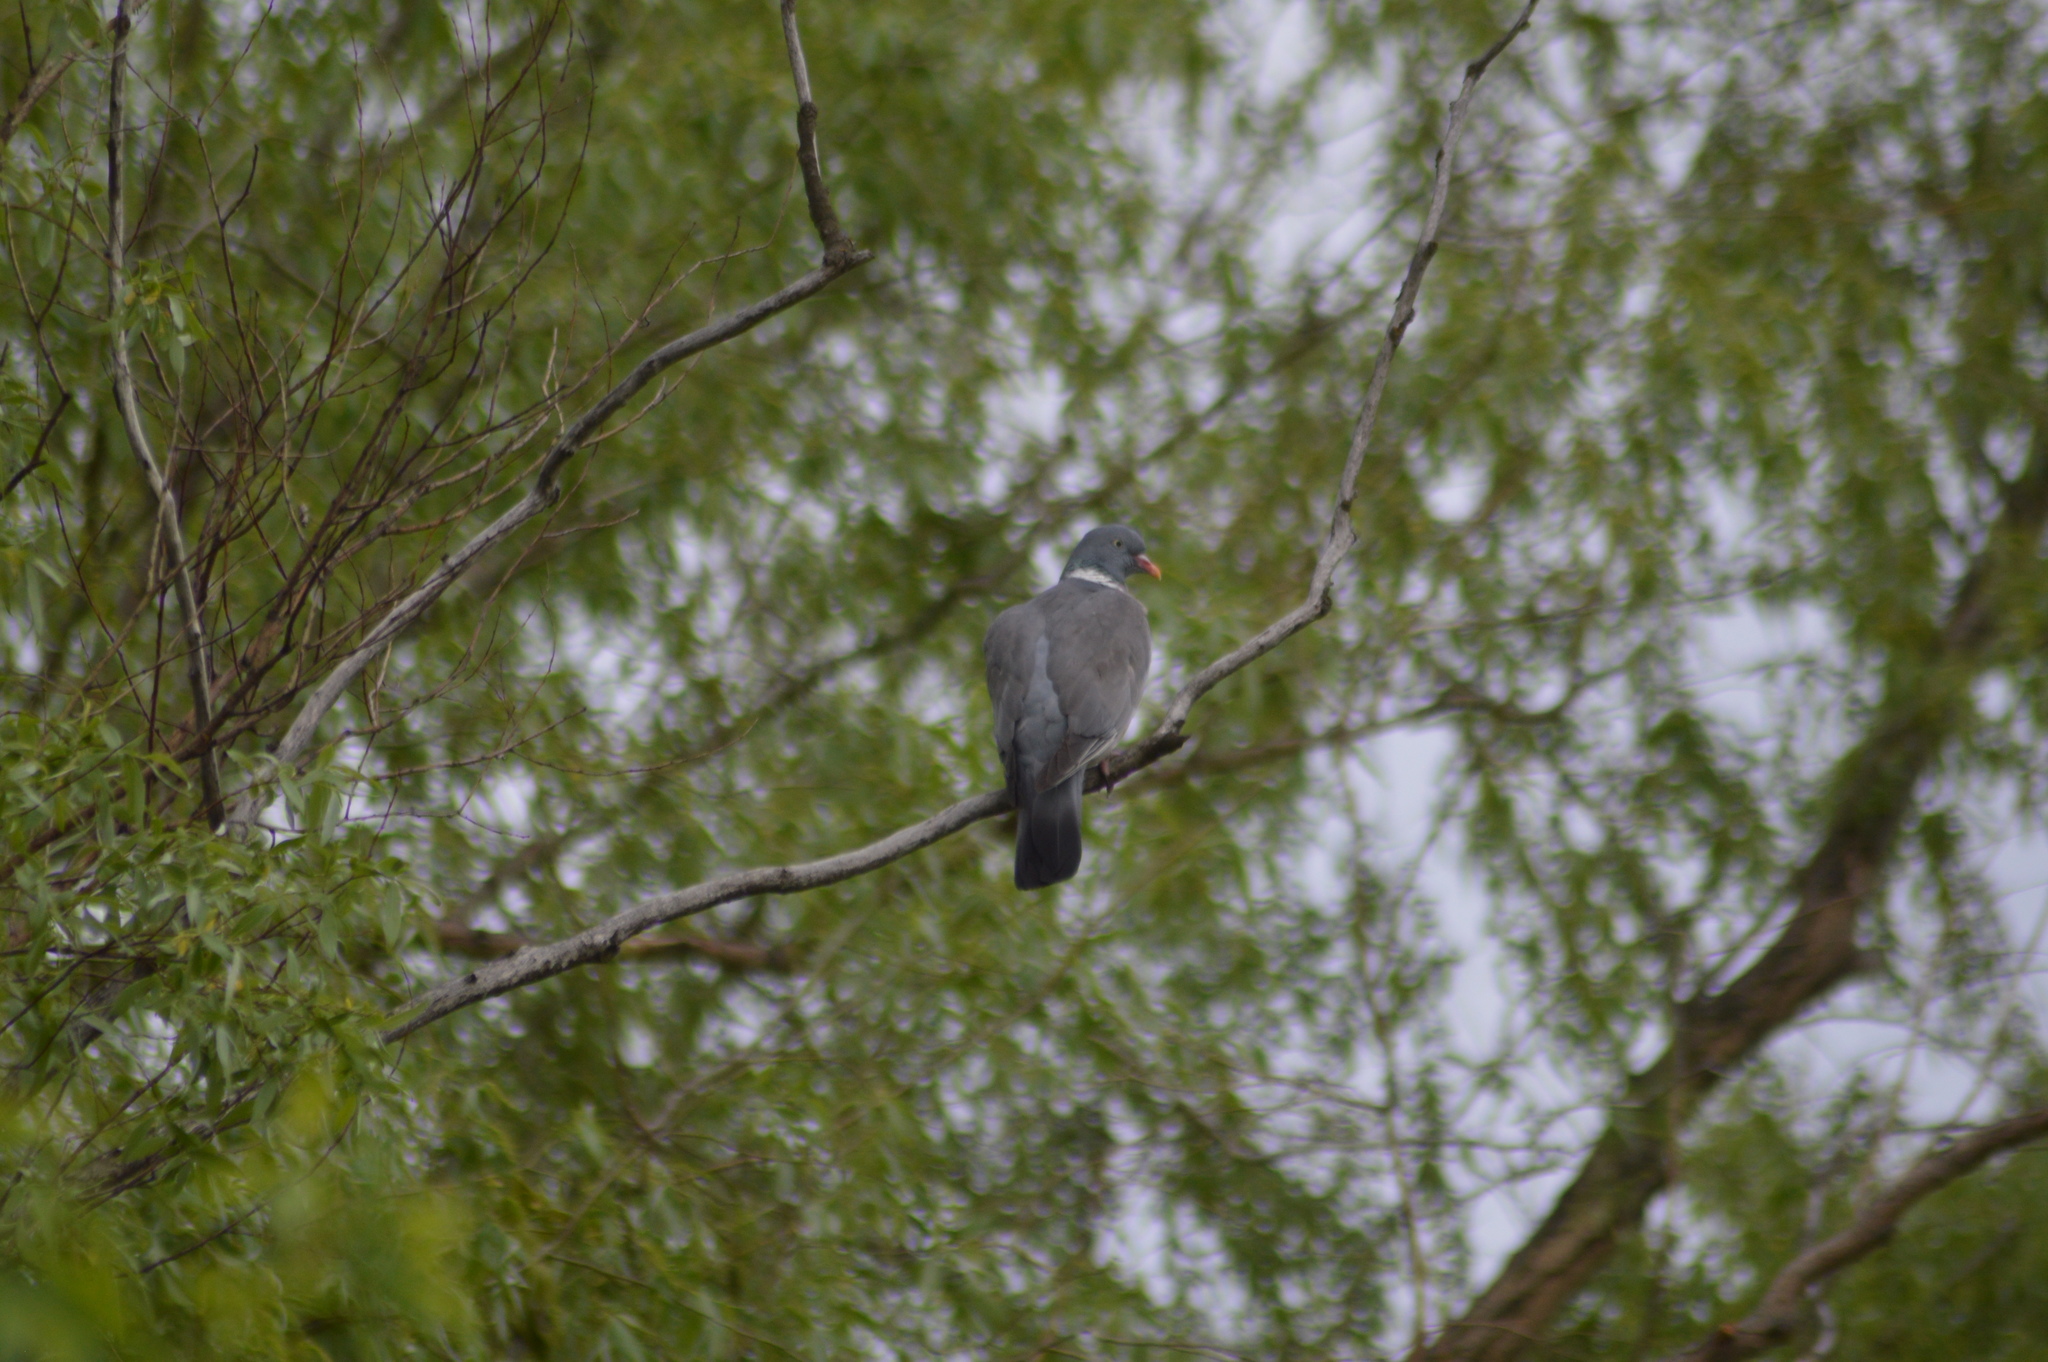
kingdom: Animalia
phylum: Chordata
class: Aves
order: Columbiformes
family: Columbidae
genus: Columba
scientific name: Columba palumbus
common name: Common wood pigeon
